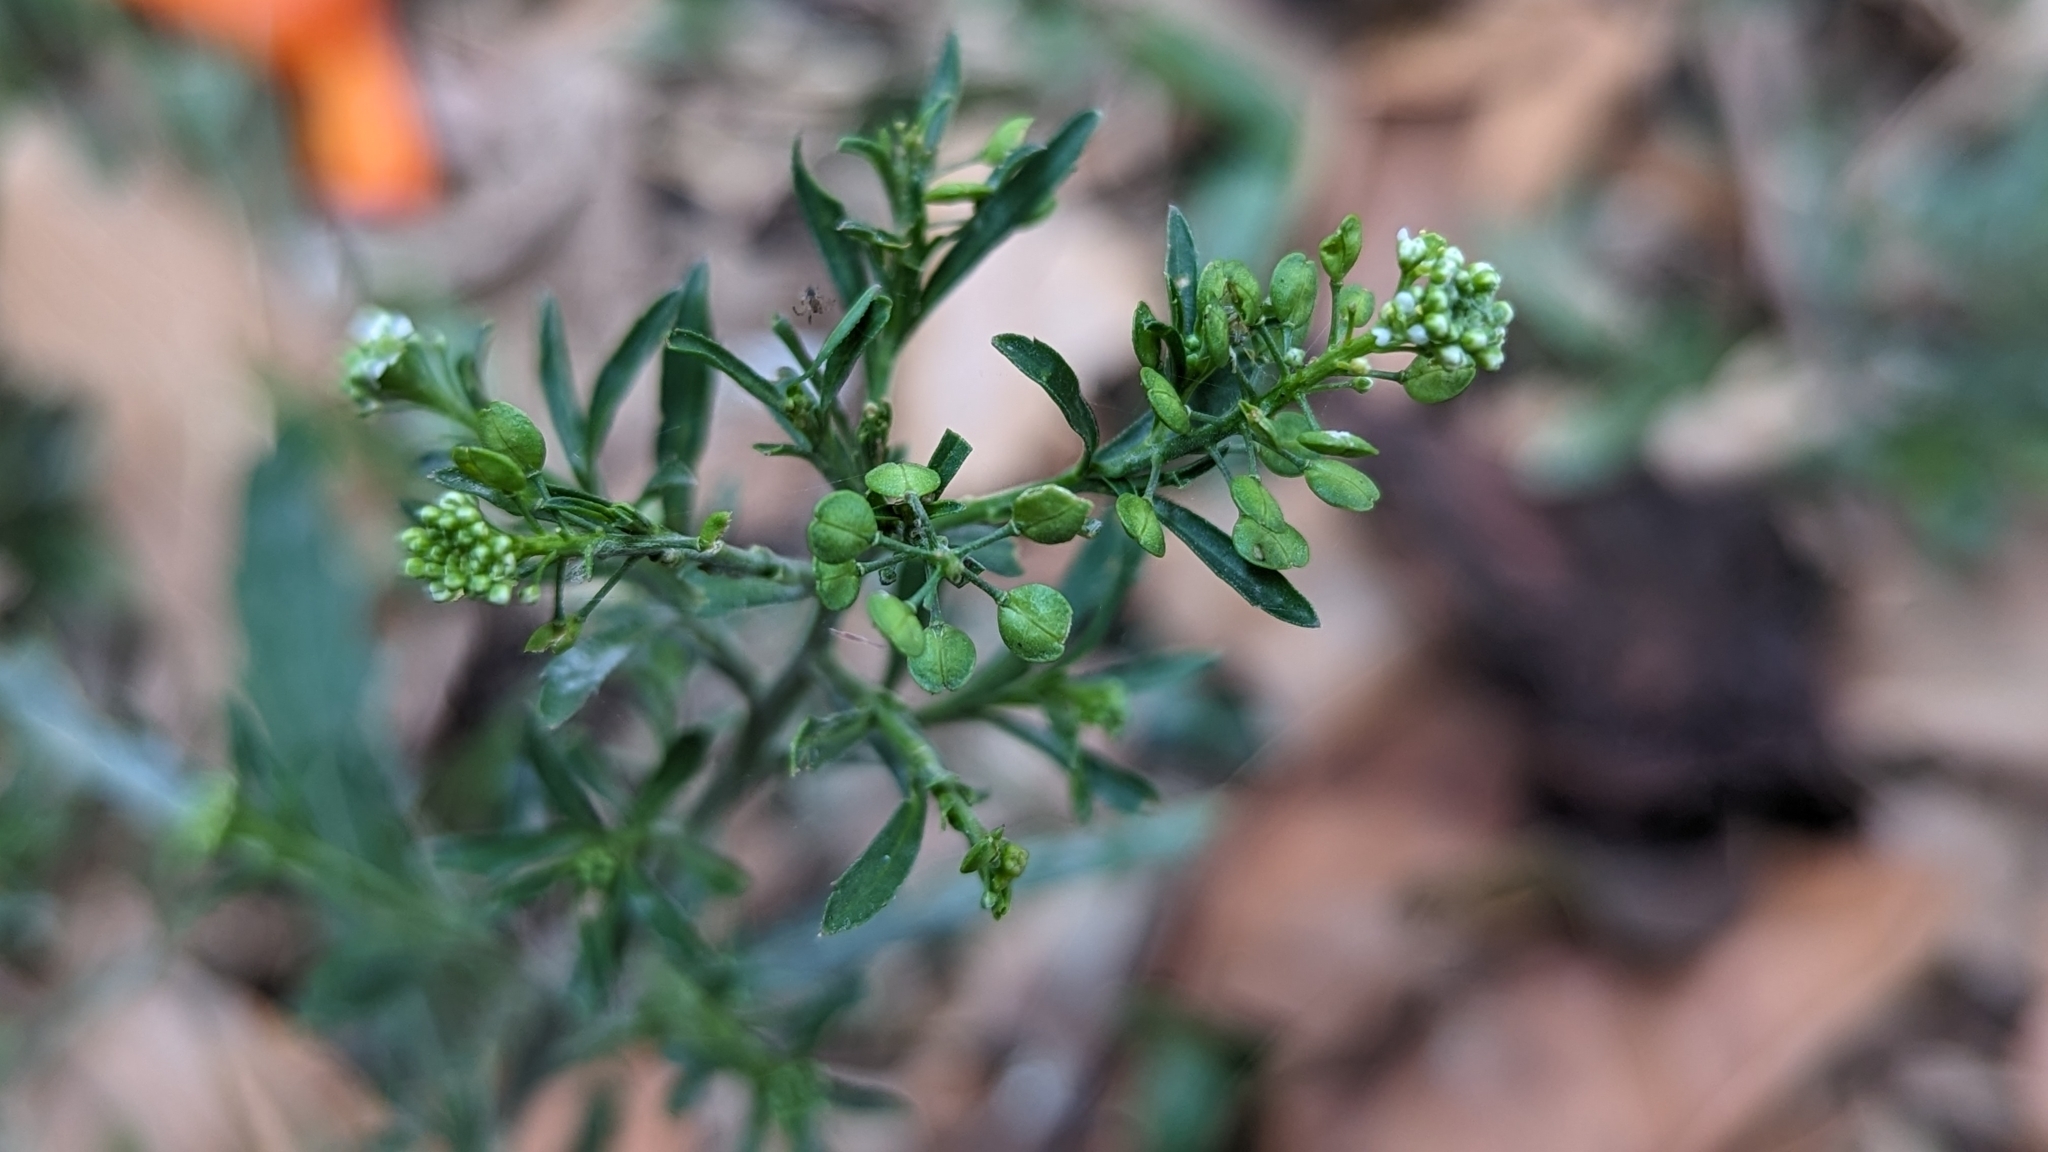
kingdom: Plantae
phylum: Tracheophyta
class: Magnoliopsida
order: Brassicales
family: Brassicaceae
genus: Lepidium
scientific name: Lepidium virginicum
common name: Least pepperwort
